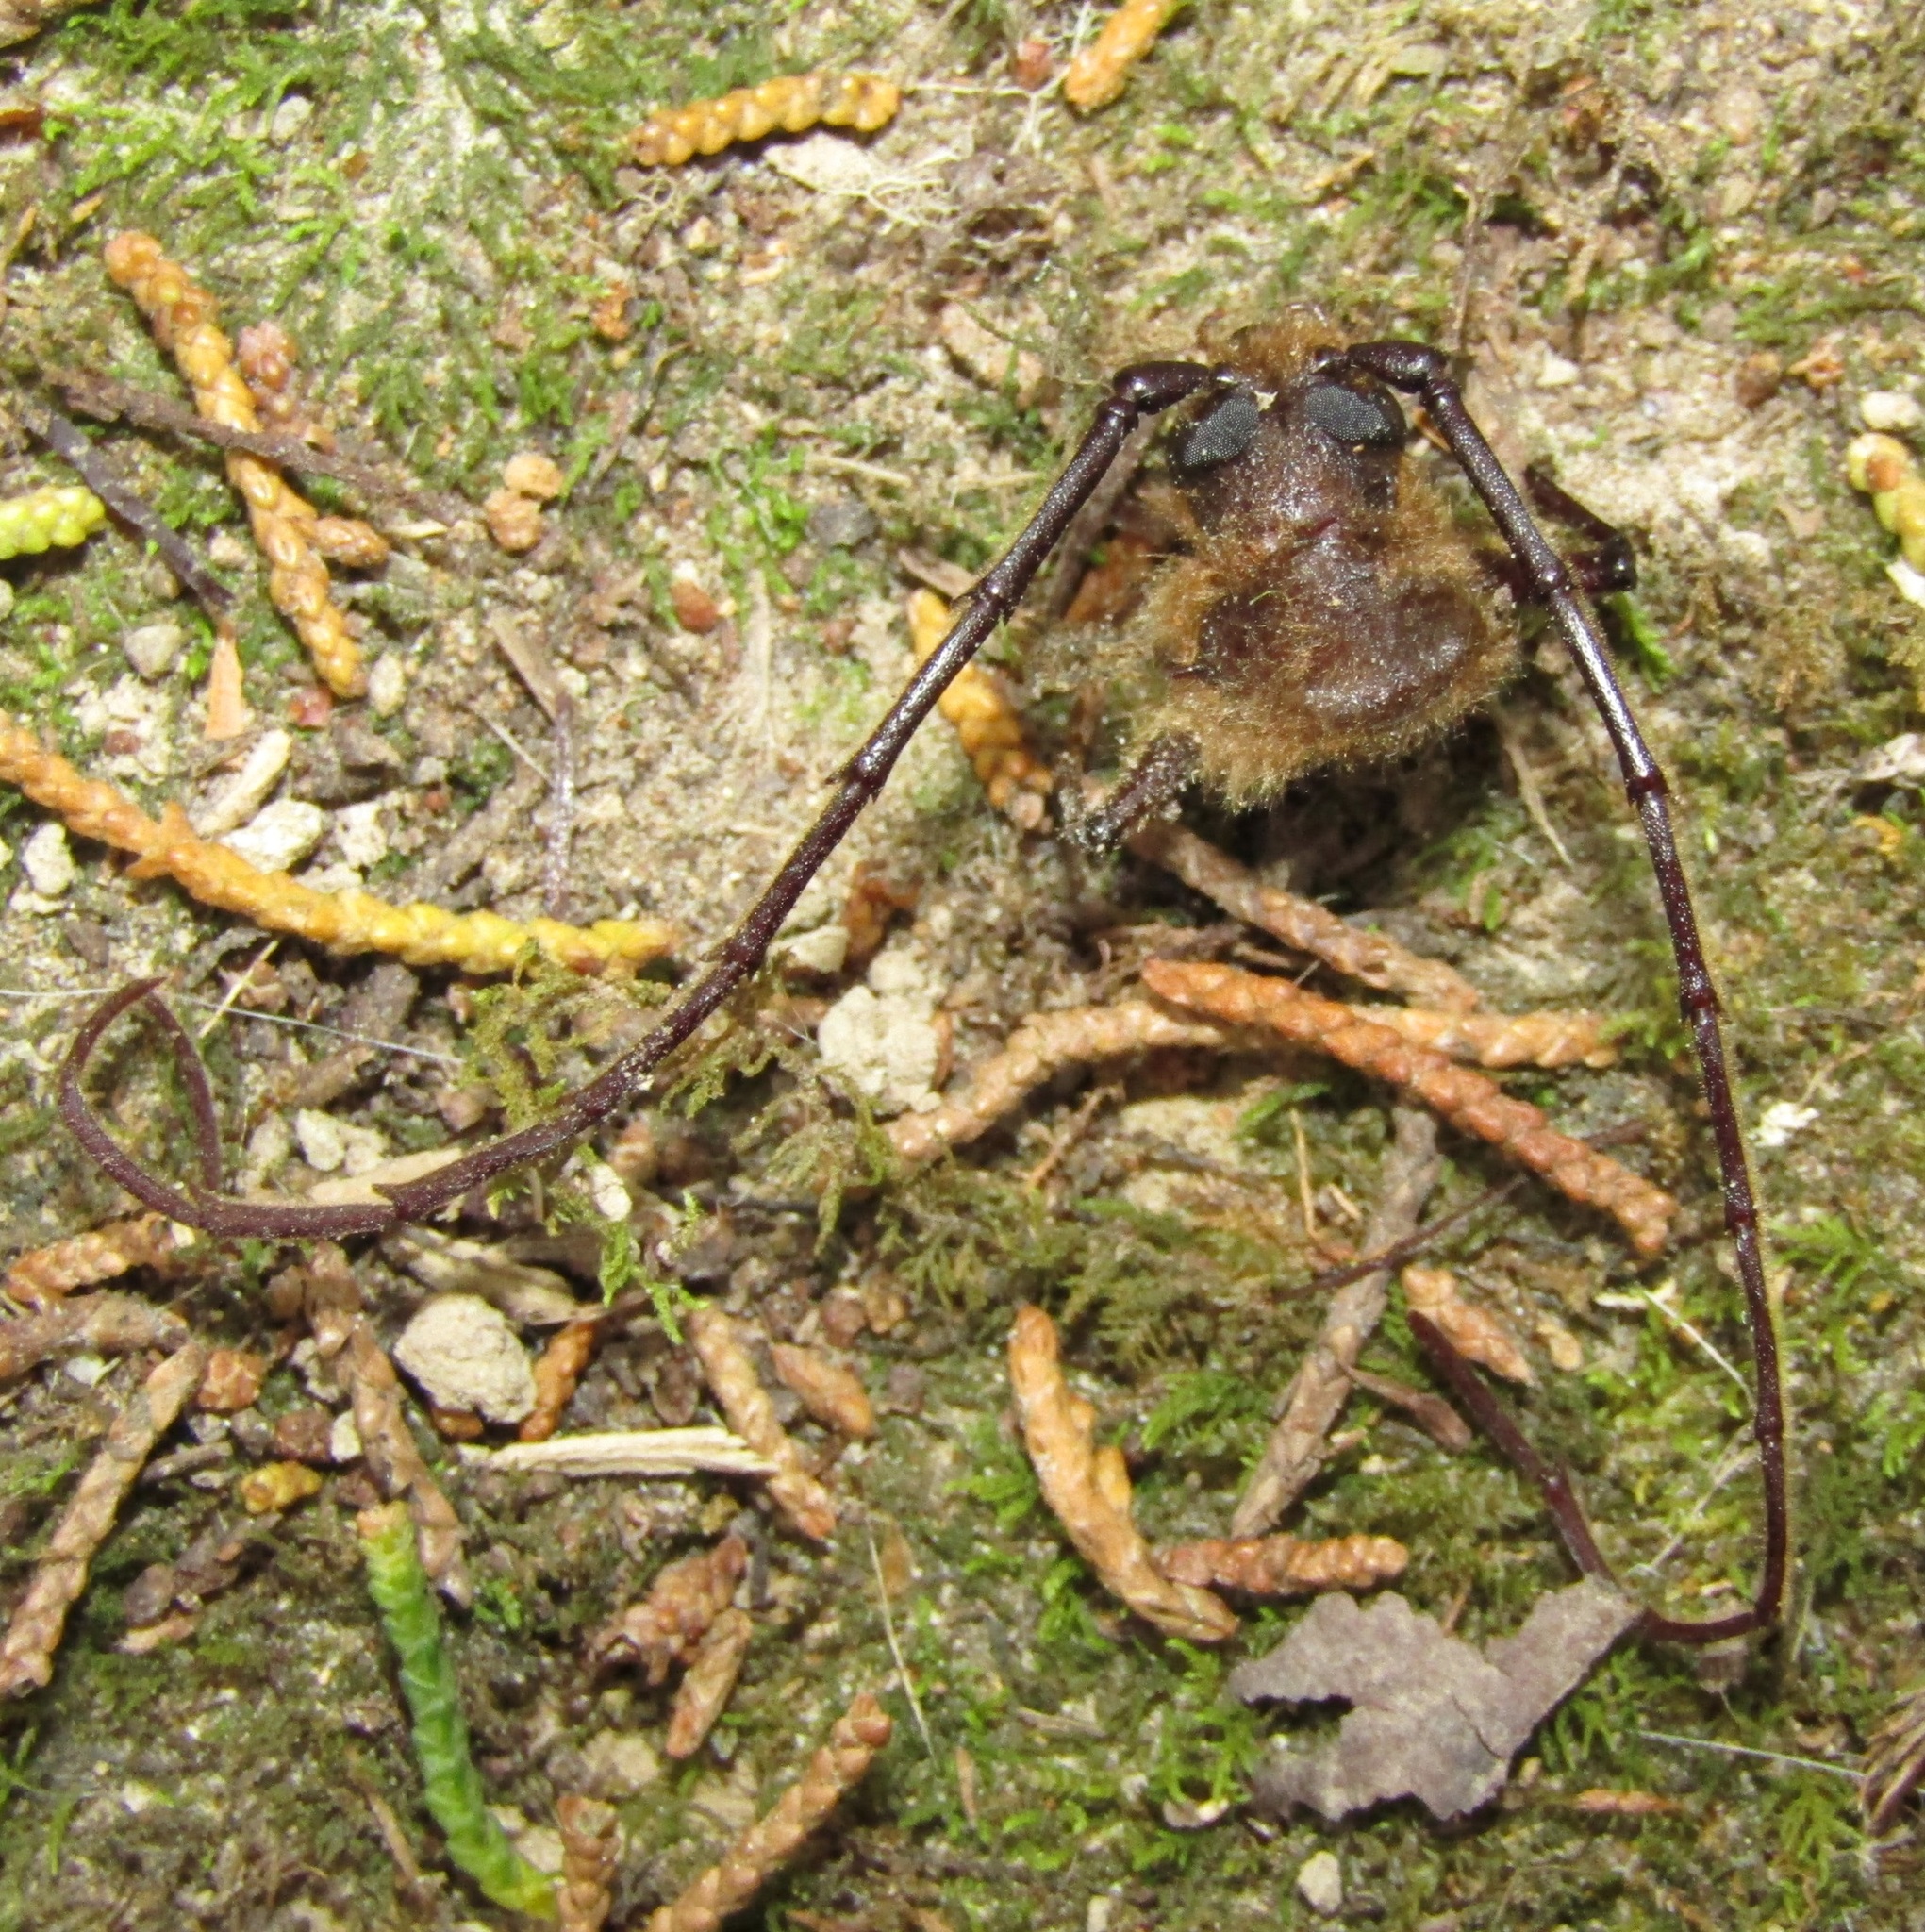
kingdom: Animalia
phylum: Arthropoda
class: Insecta
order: Coleoptera
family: Cerambycidae
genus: Prionoplus
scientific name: Prionoplus reticularis
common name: Huhu beetle
